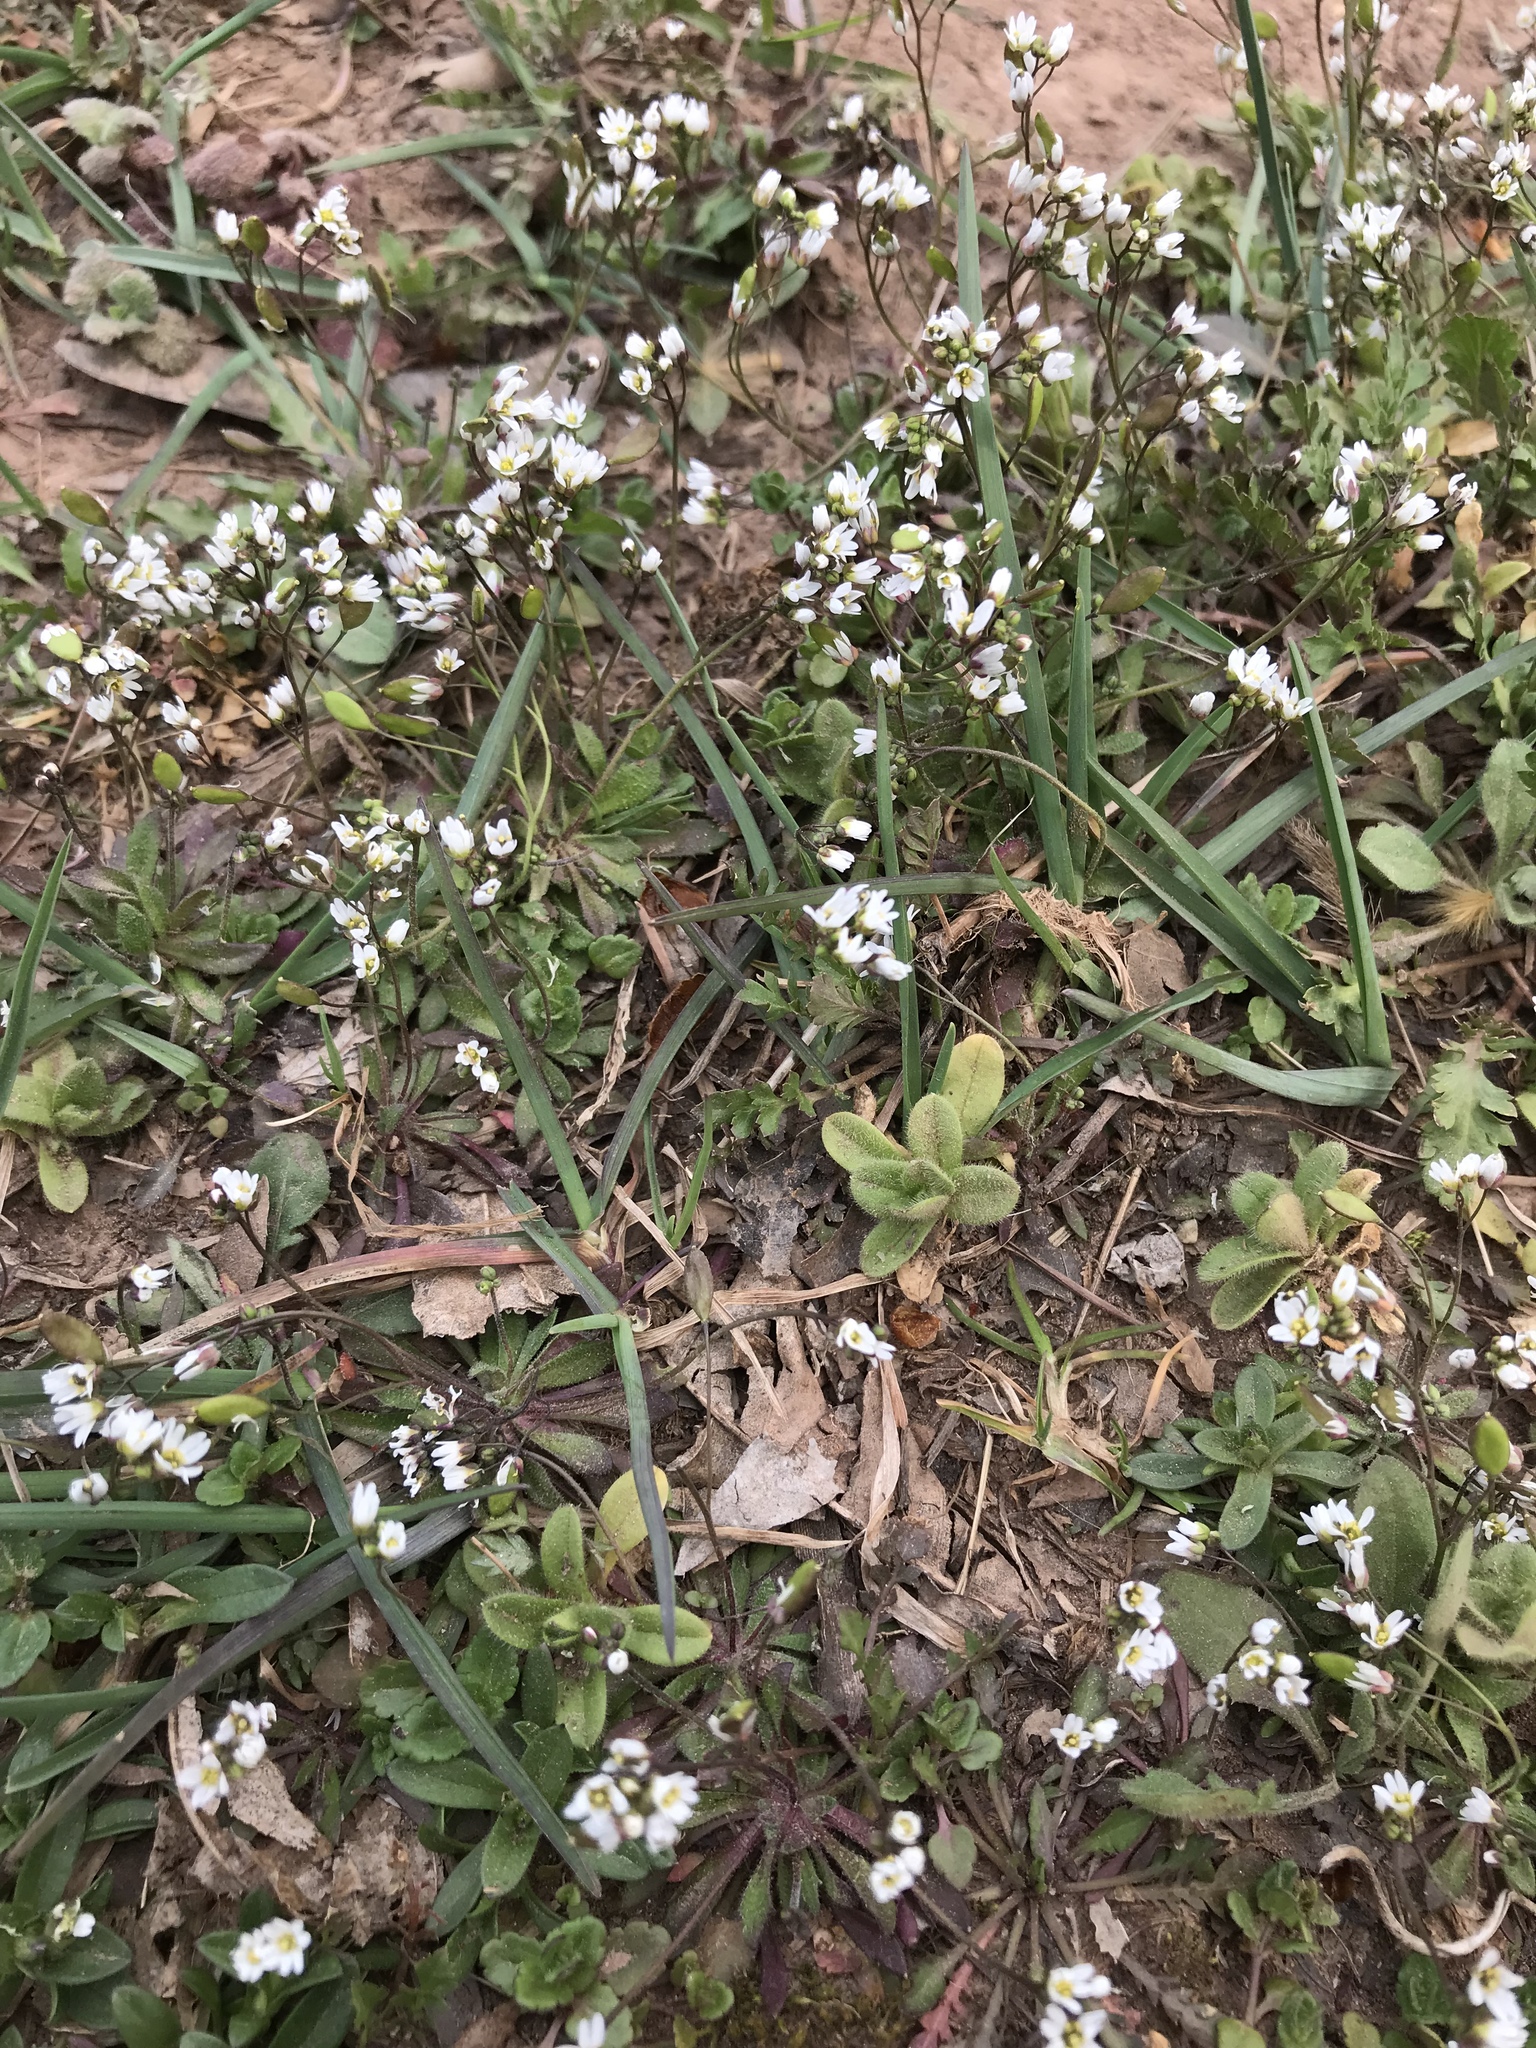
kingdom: Plantae
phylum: Tracheophyta
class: Magnoliopsida
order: Brassicales
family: Brassicaceae
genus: Draba
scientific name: Draba verna
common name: Spring draba
